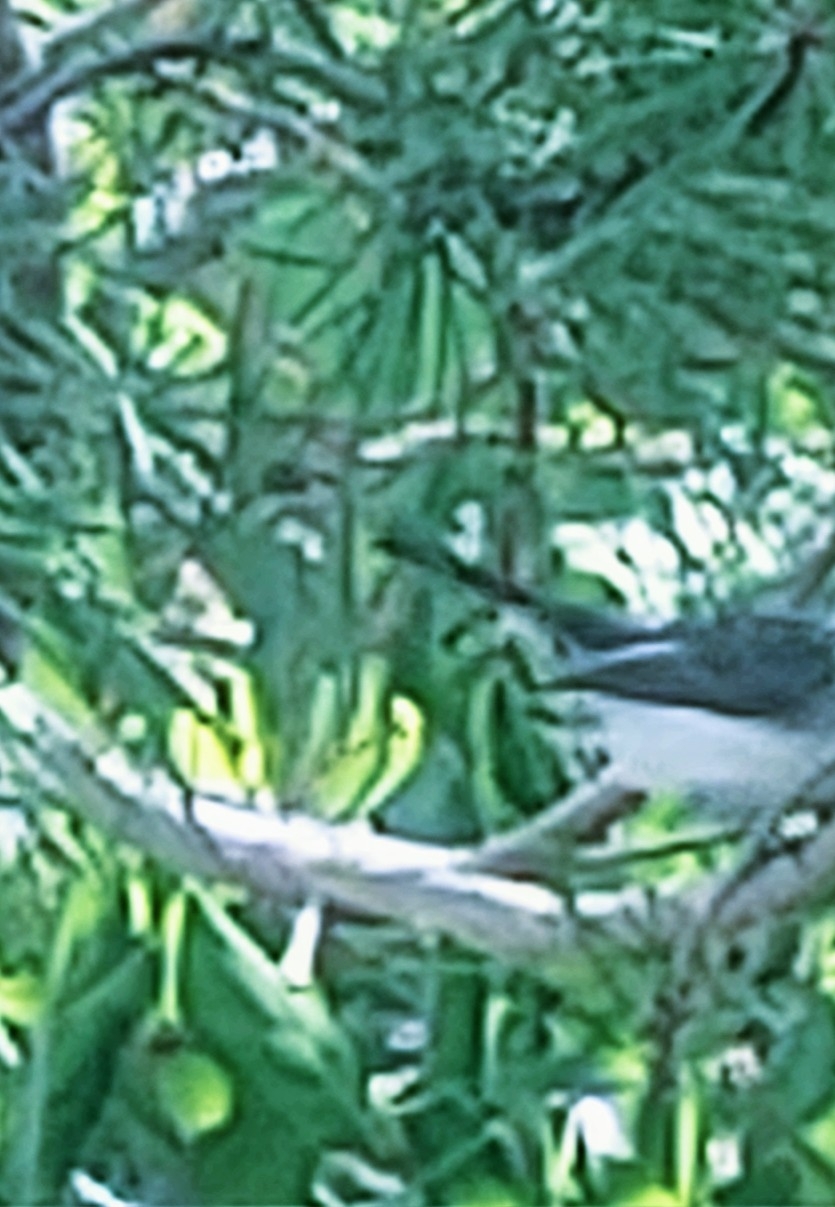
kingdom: Animalia
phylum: Chordata
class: Aves
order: Passeriformes
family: Polioptilidae
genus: Polioptila
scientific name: Polioptila caerulea
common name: Blue-gray gnatcatcher
